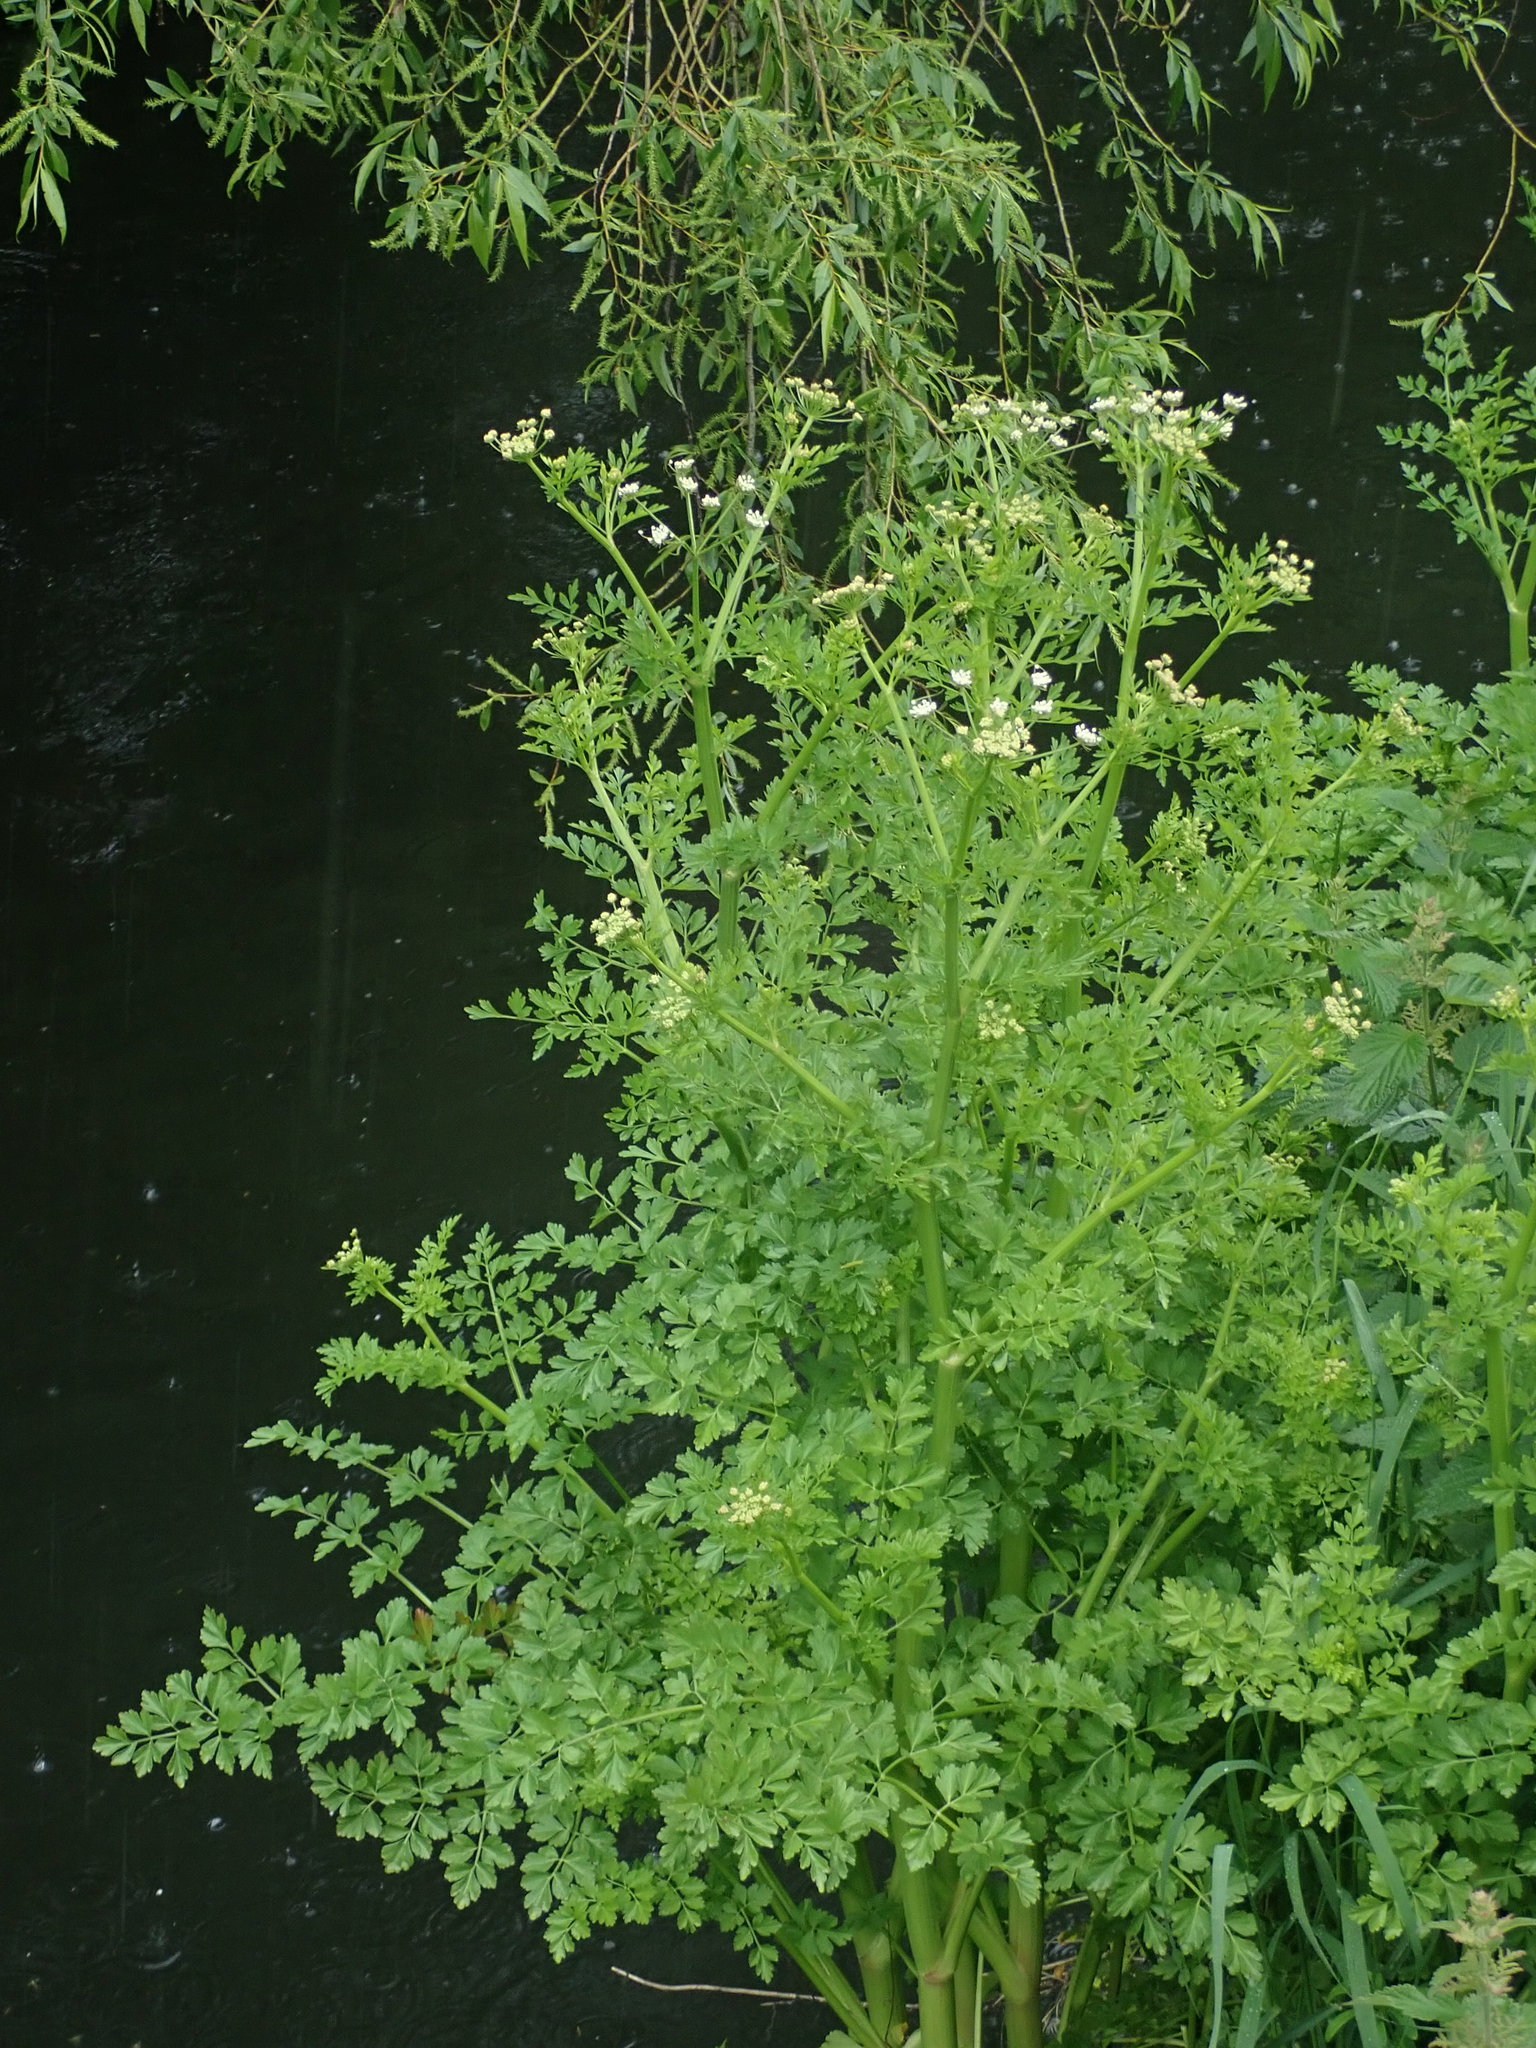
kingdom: Plantae
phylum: Tracheophyta
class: Magnoliopsida
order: Apiales
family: Apiaceae
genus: Oenanthe
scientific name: Oenanthe crocata
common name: Hemlock water-dropwort
